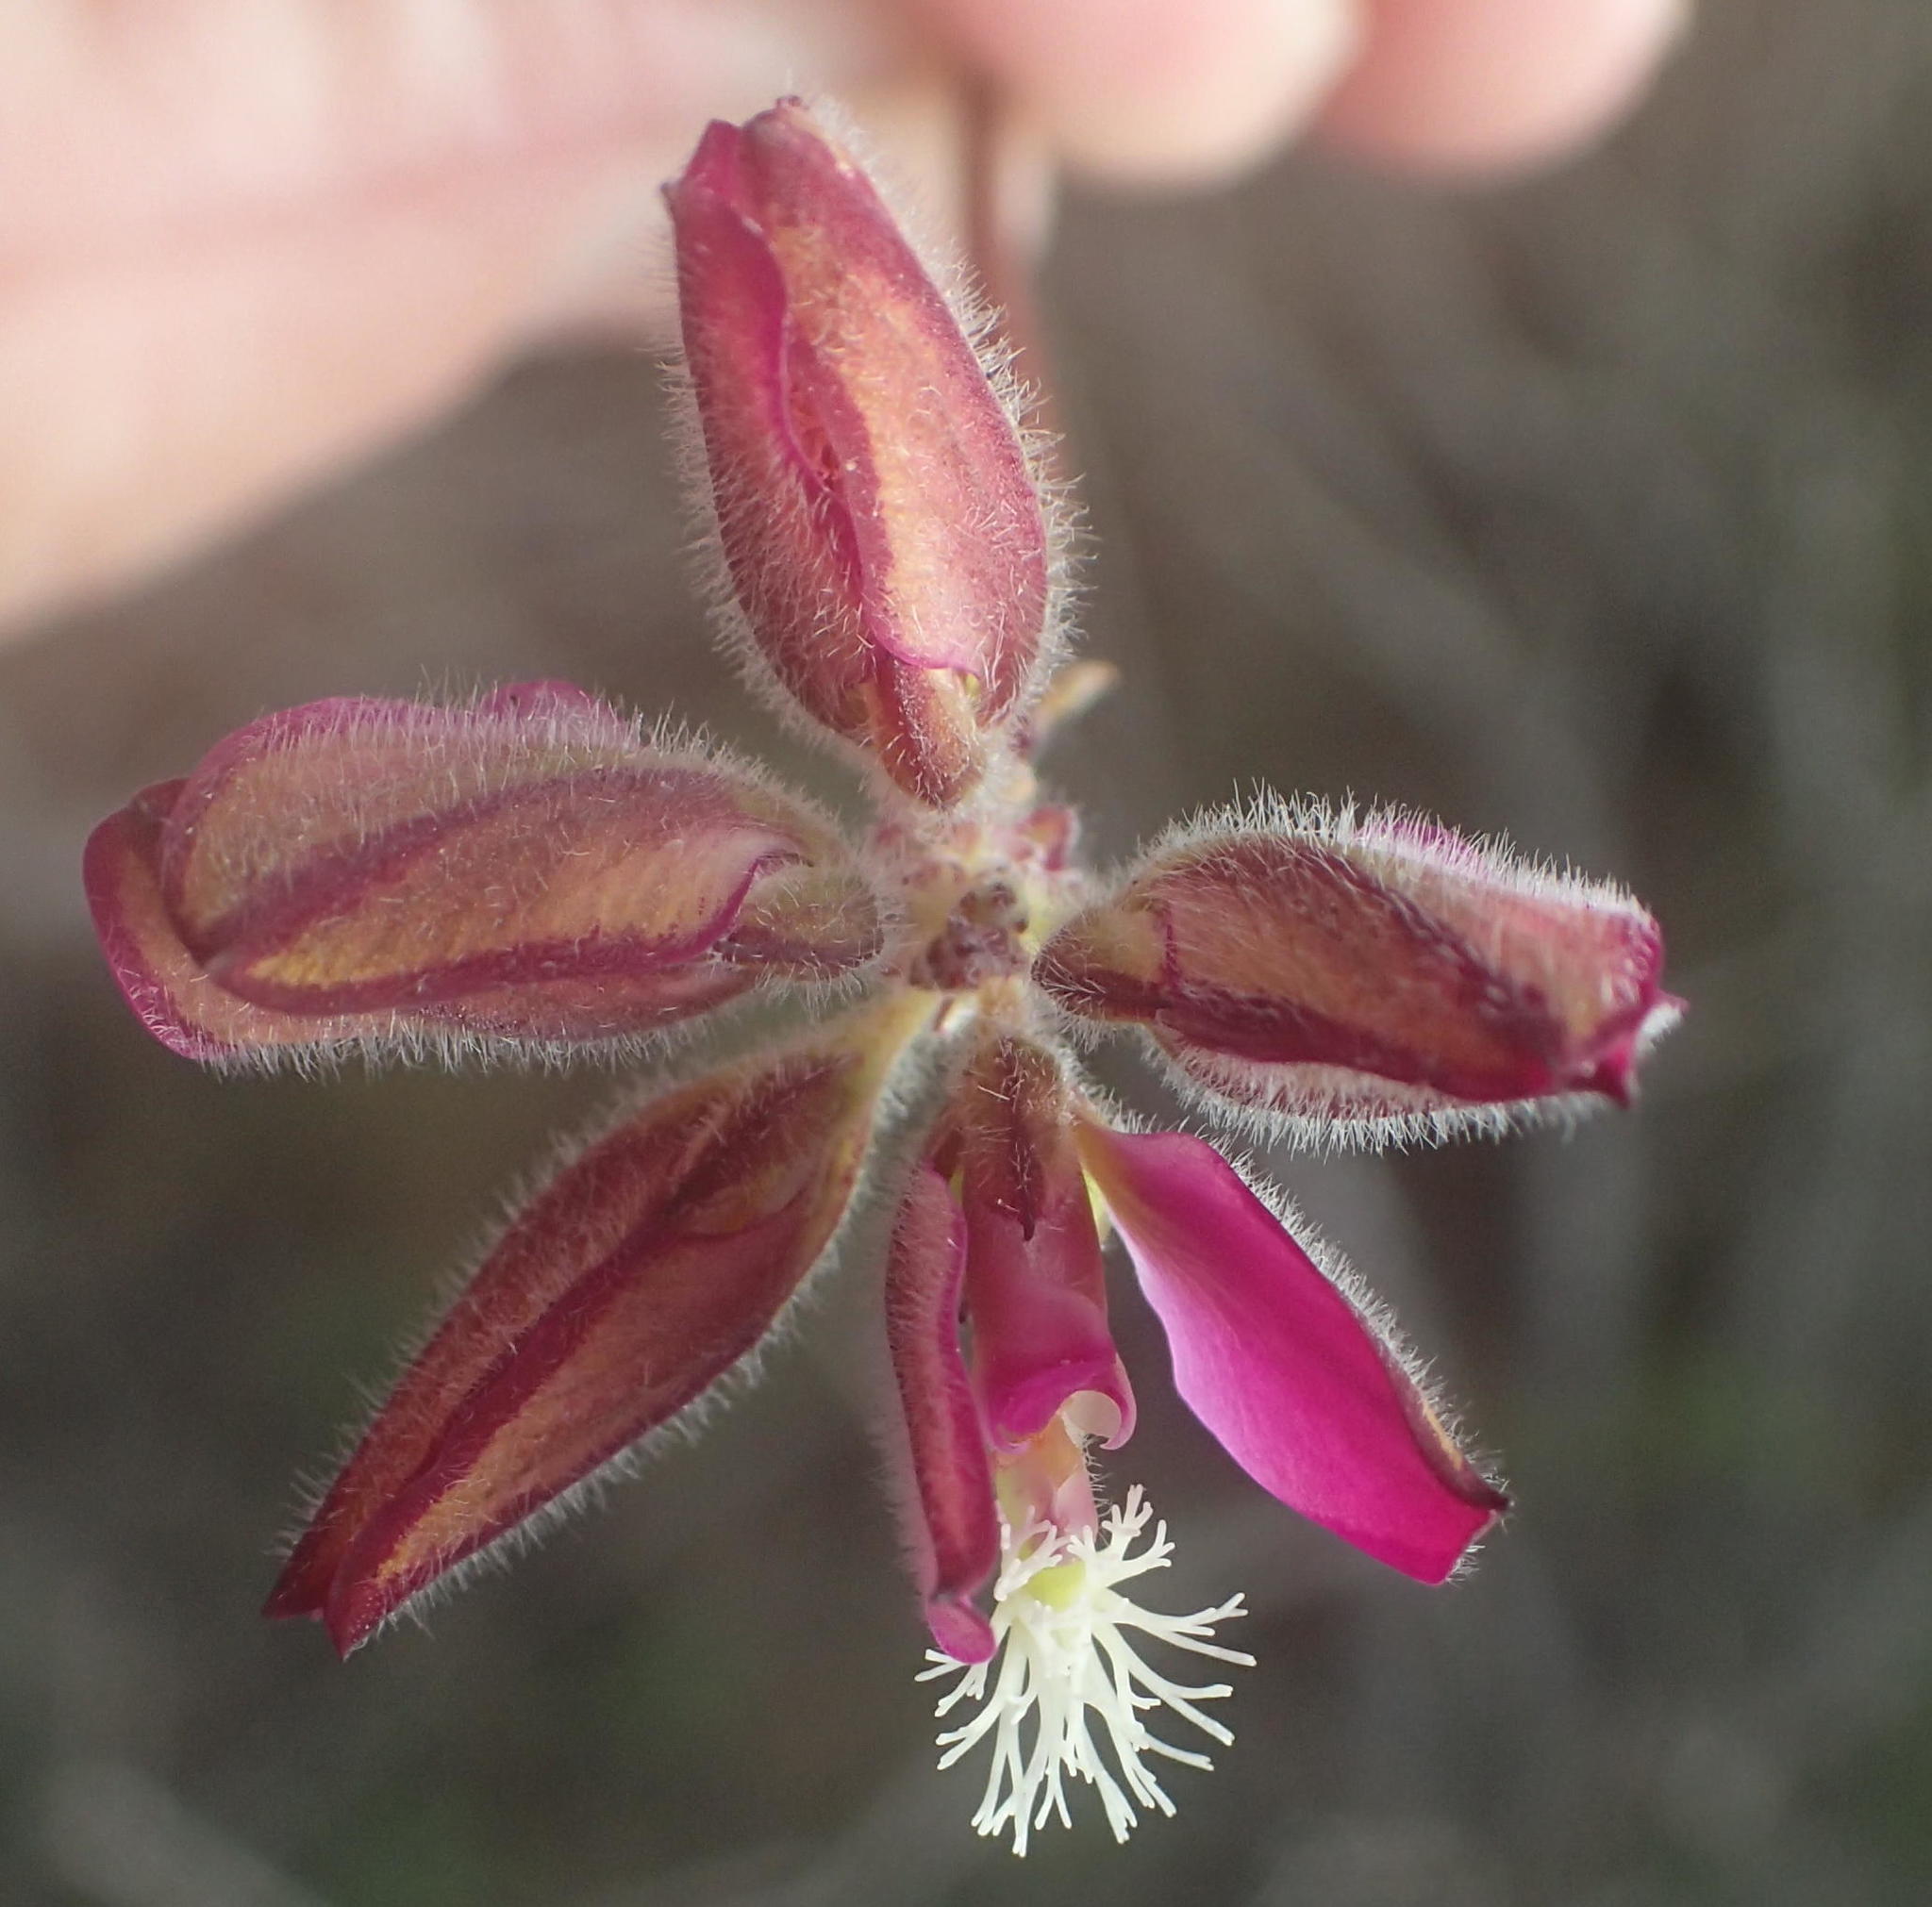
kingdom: Plantae
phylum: Tracheophyta
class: Magnoliopsida
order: Fabales
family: Polygalaceae
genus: Polygala
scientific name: Polygala pubiflora
